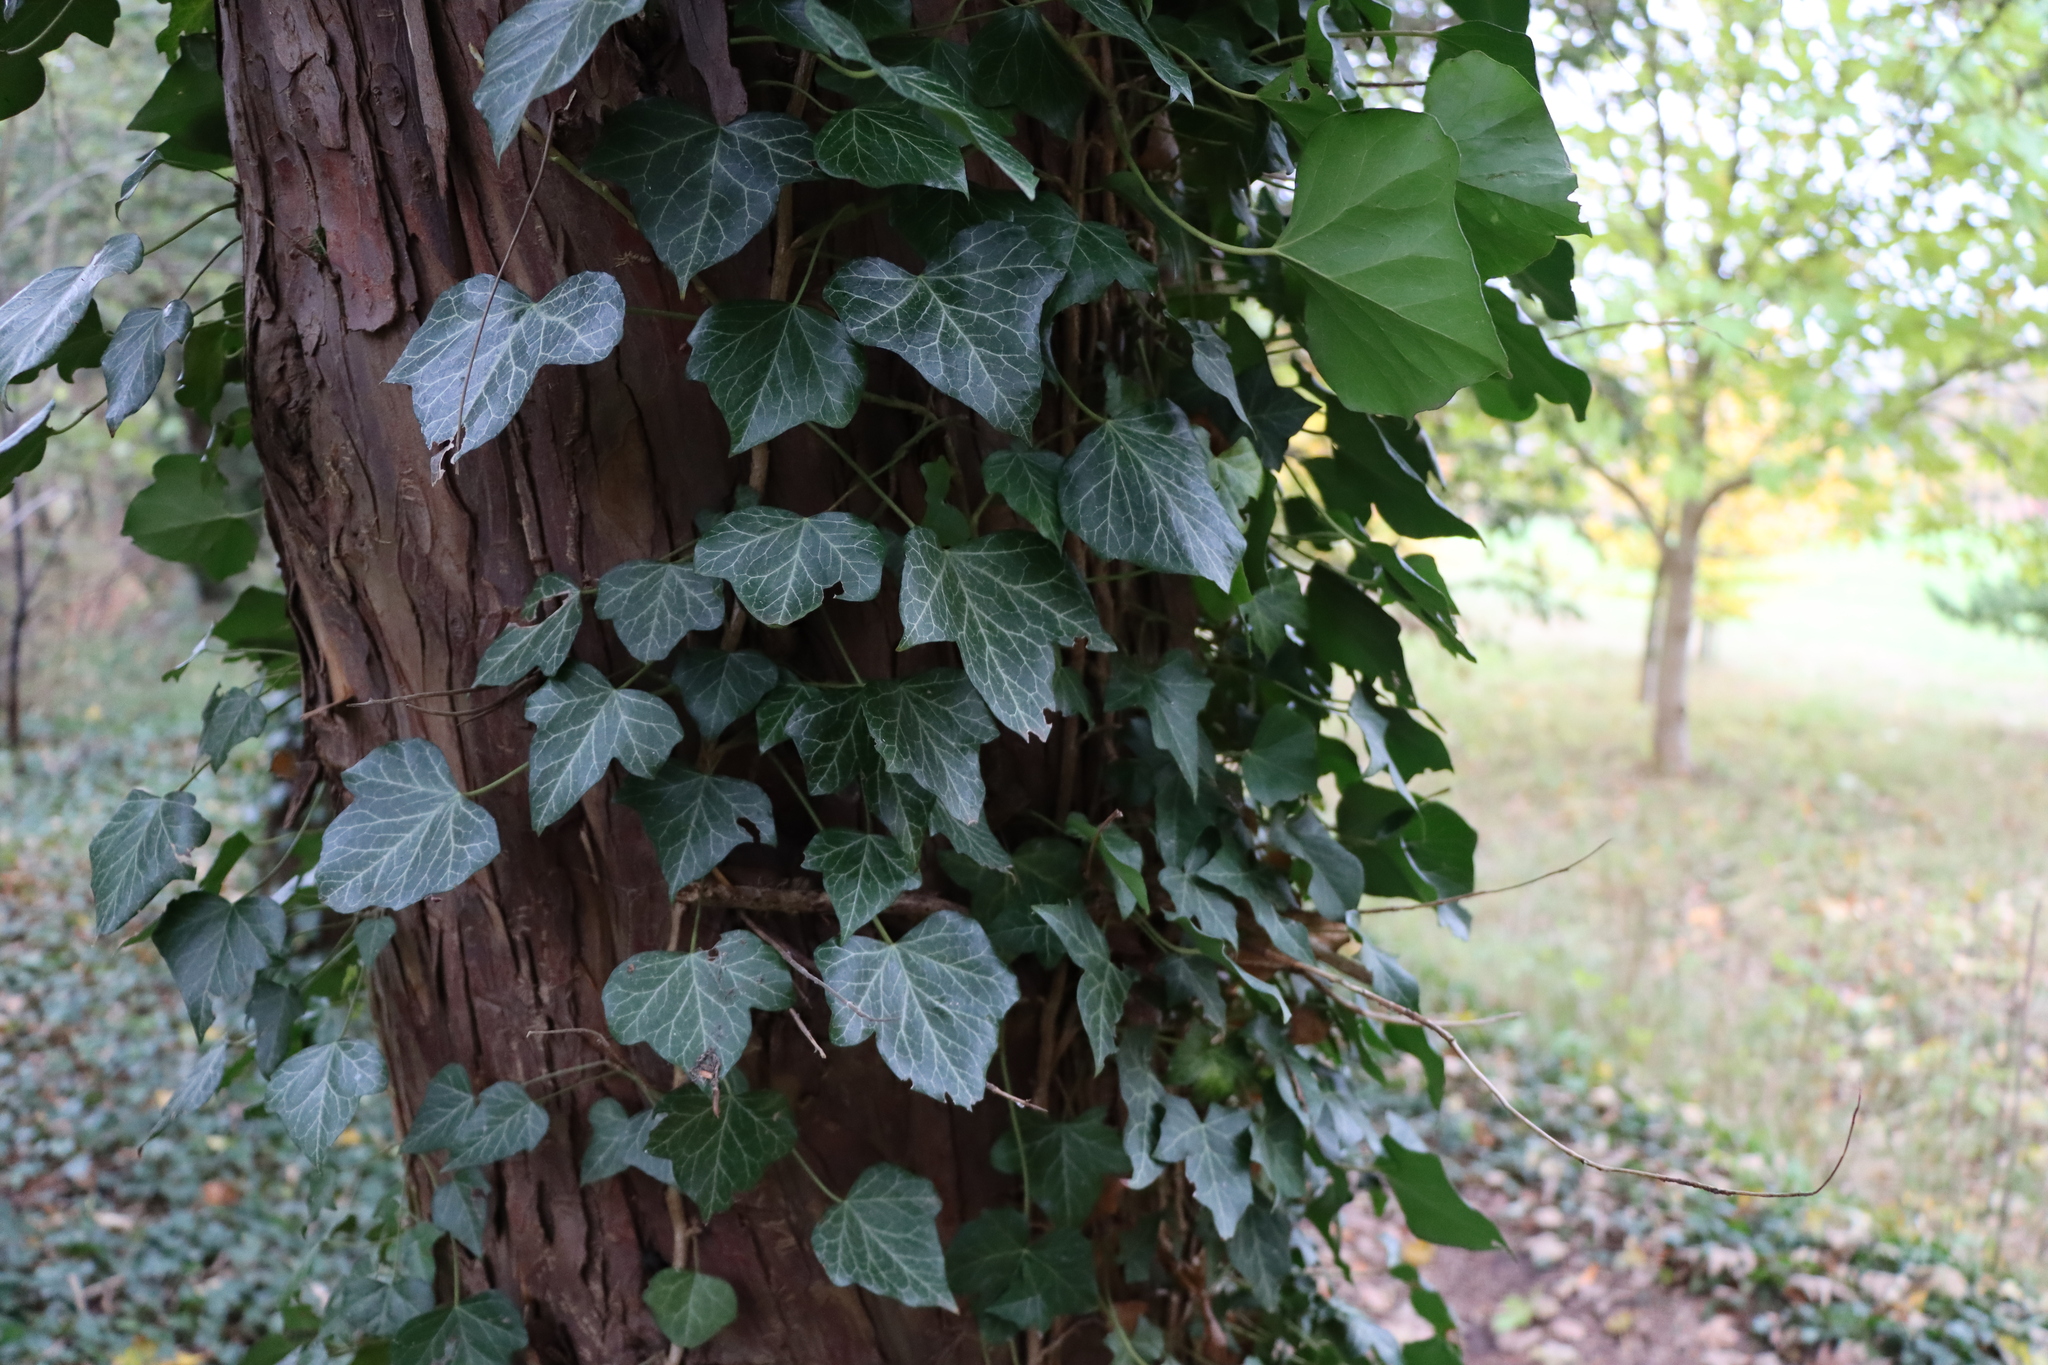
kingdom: Plantae
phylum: Tracheophyta
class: Magnoliopsida
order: Apiales
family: Araliaceae
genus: Hedera
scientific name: Hedera helix
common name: Ivy
